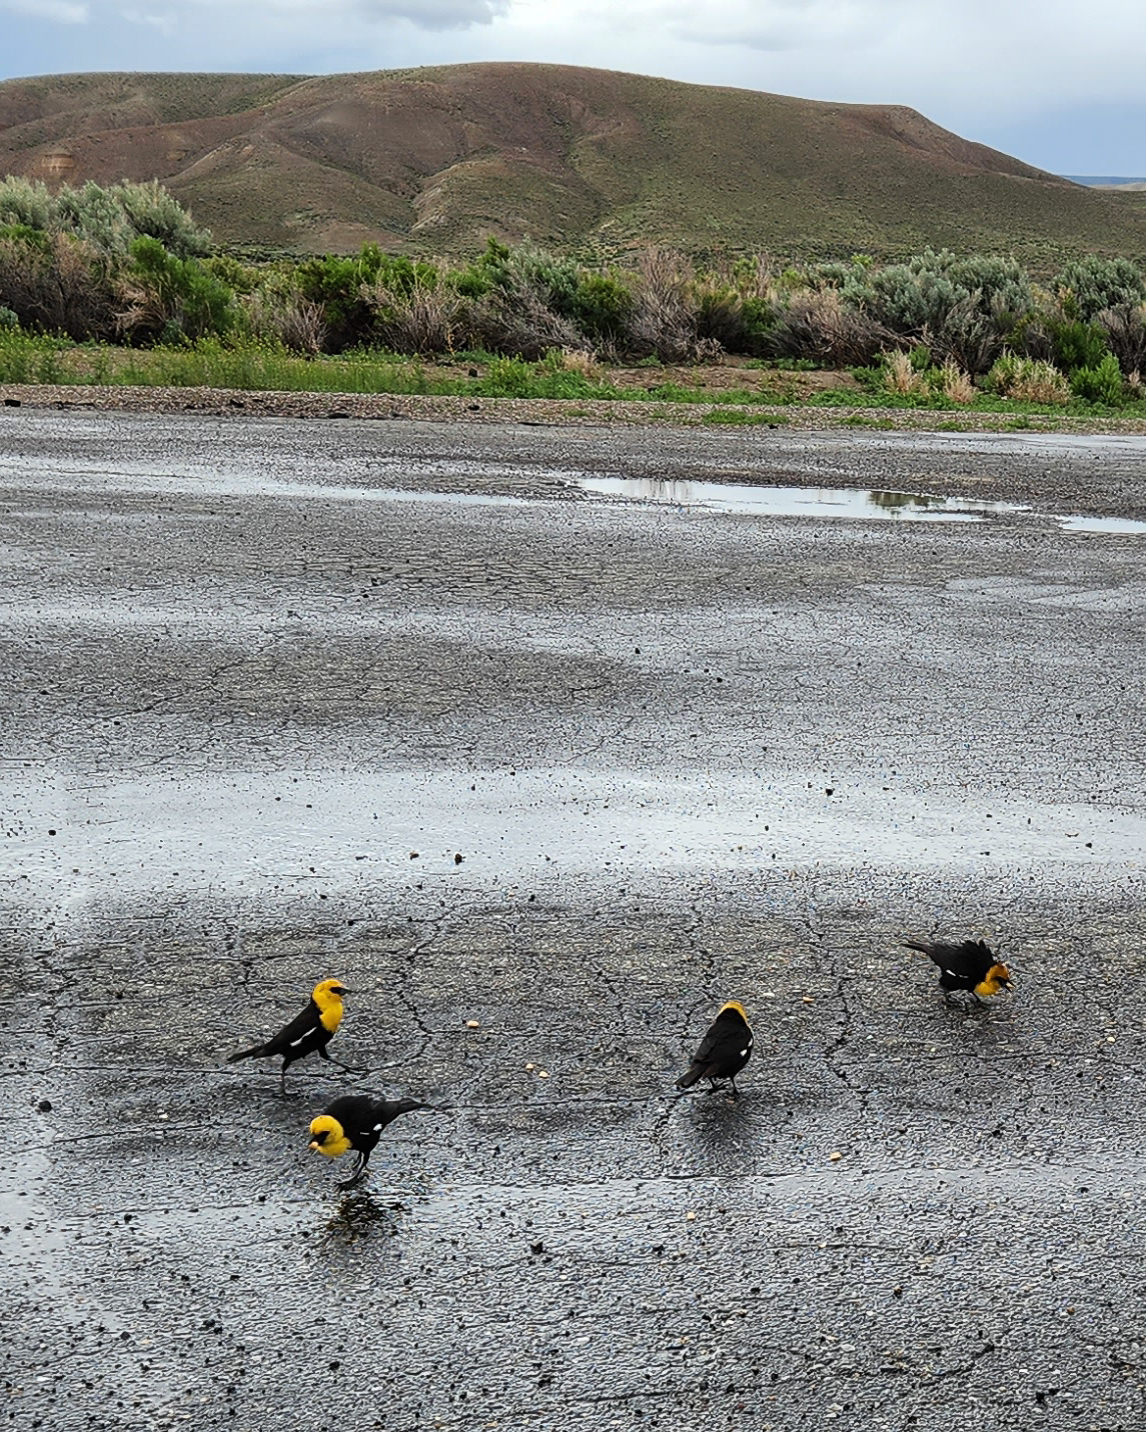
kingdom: Animalia
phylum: Chordata
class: Aves
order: Passeriformes
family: Icteridae
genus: Xanthocephalus
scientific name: Xanthocephalus xanthocephalus
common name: Yellow-headed blackbird
